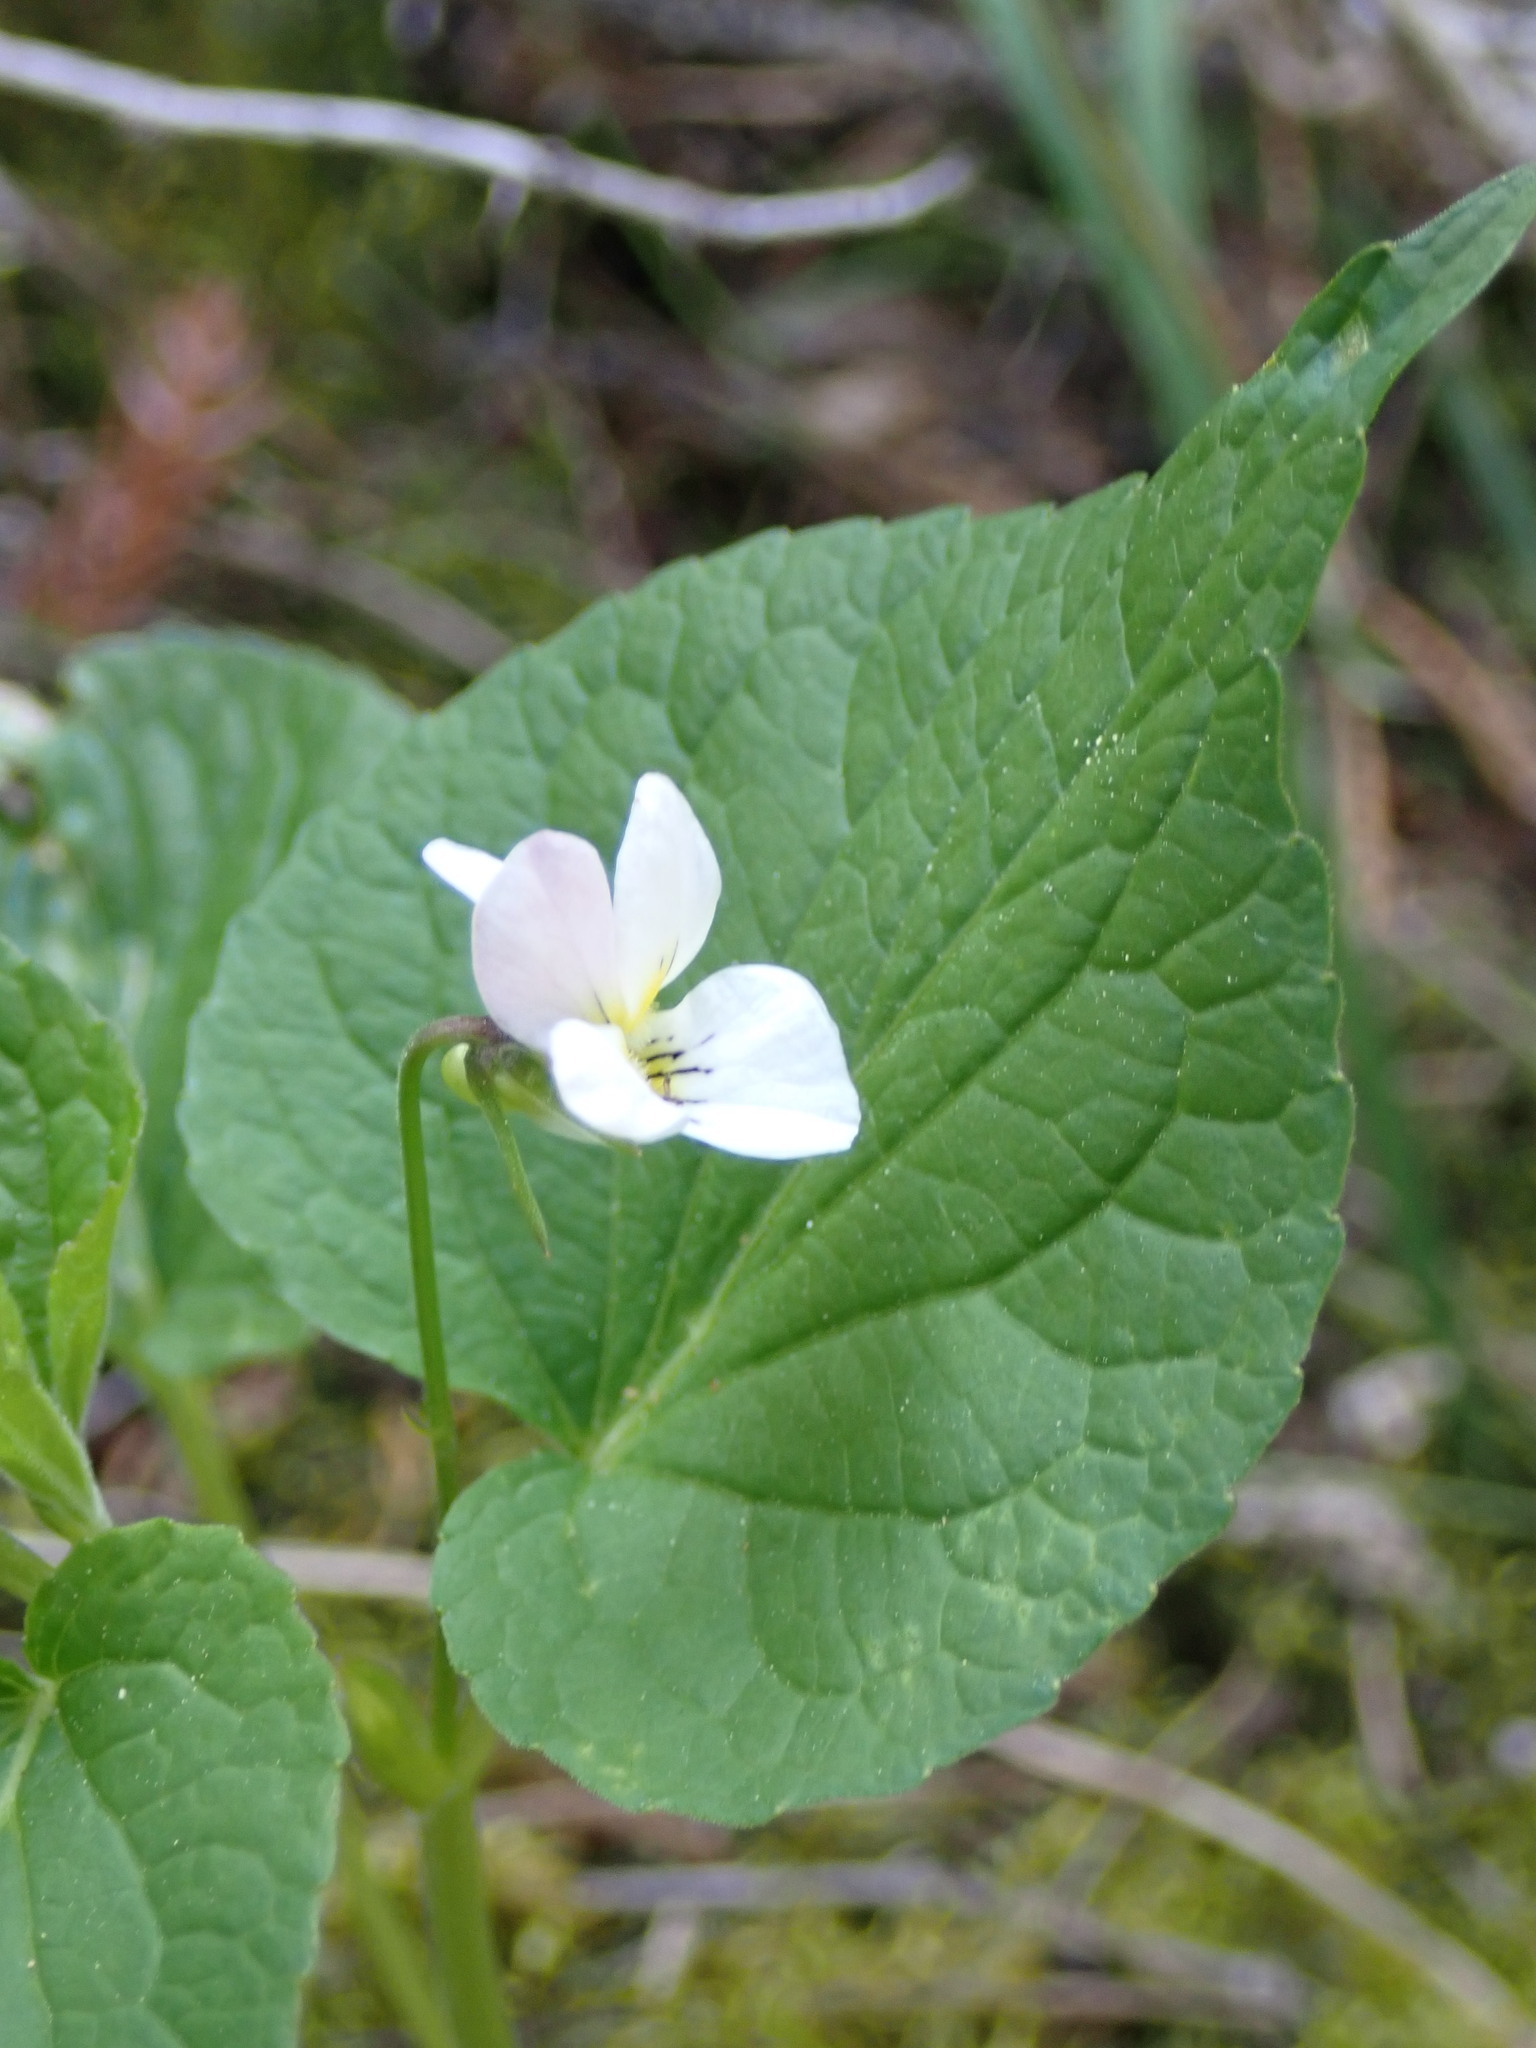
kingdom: Plantae
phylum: Tracheophyta
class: Magnoliopsida
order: Malpighiales
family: Violaceae
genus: Viola
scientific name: Viola canadensis
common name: Canada violet
